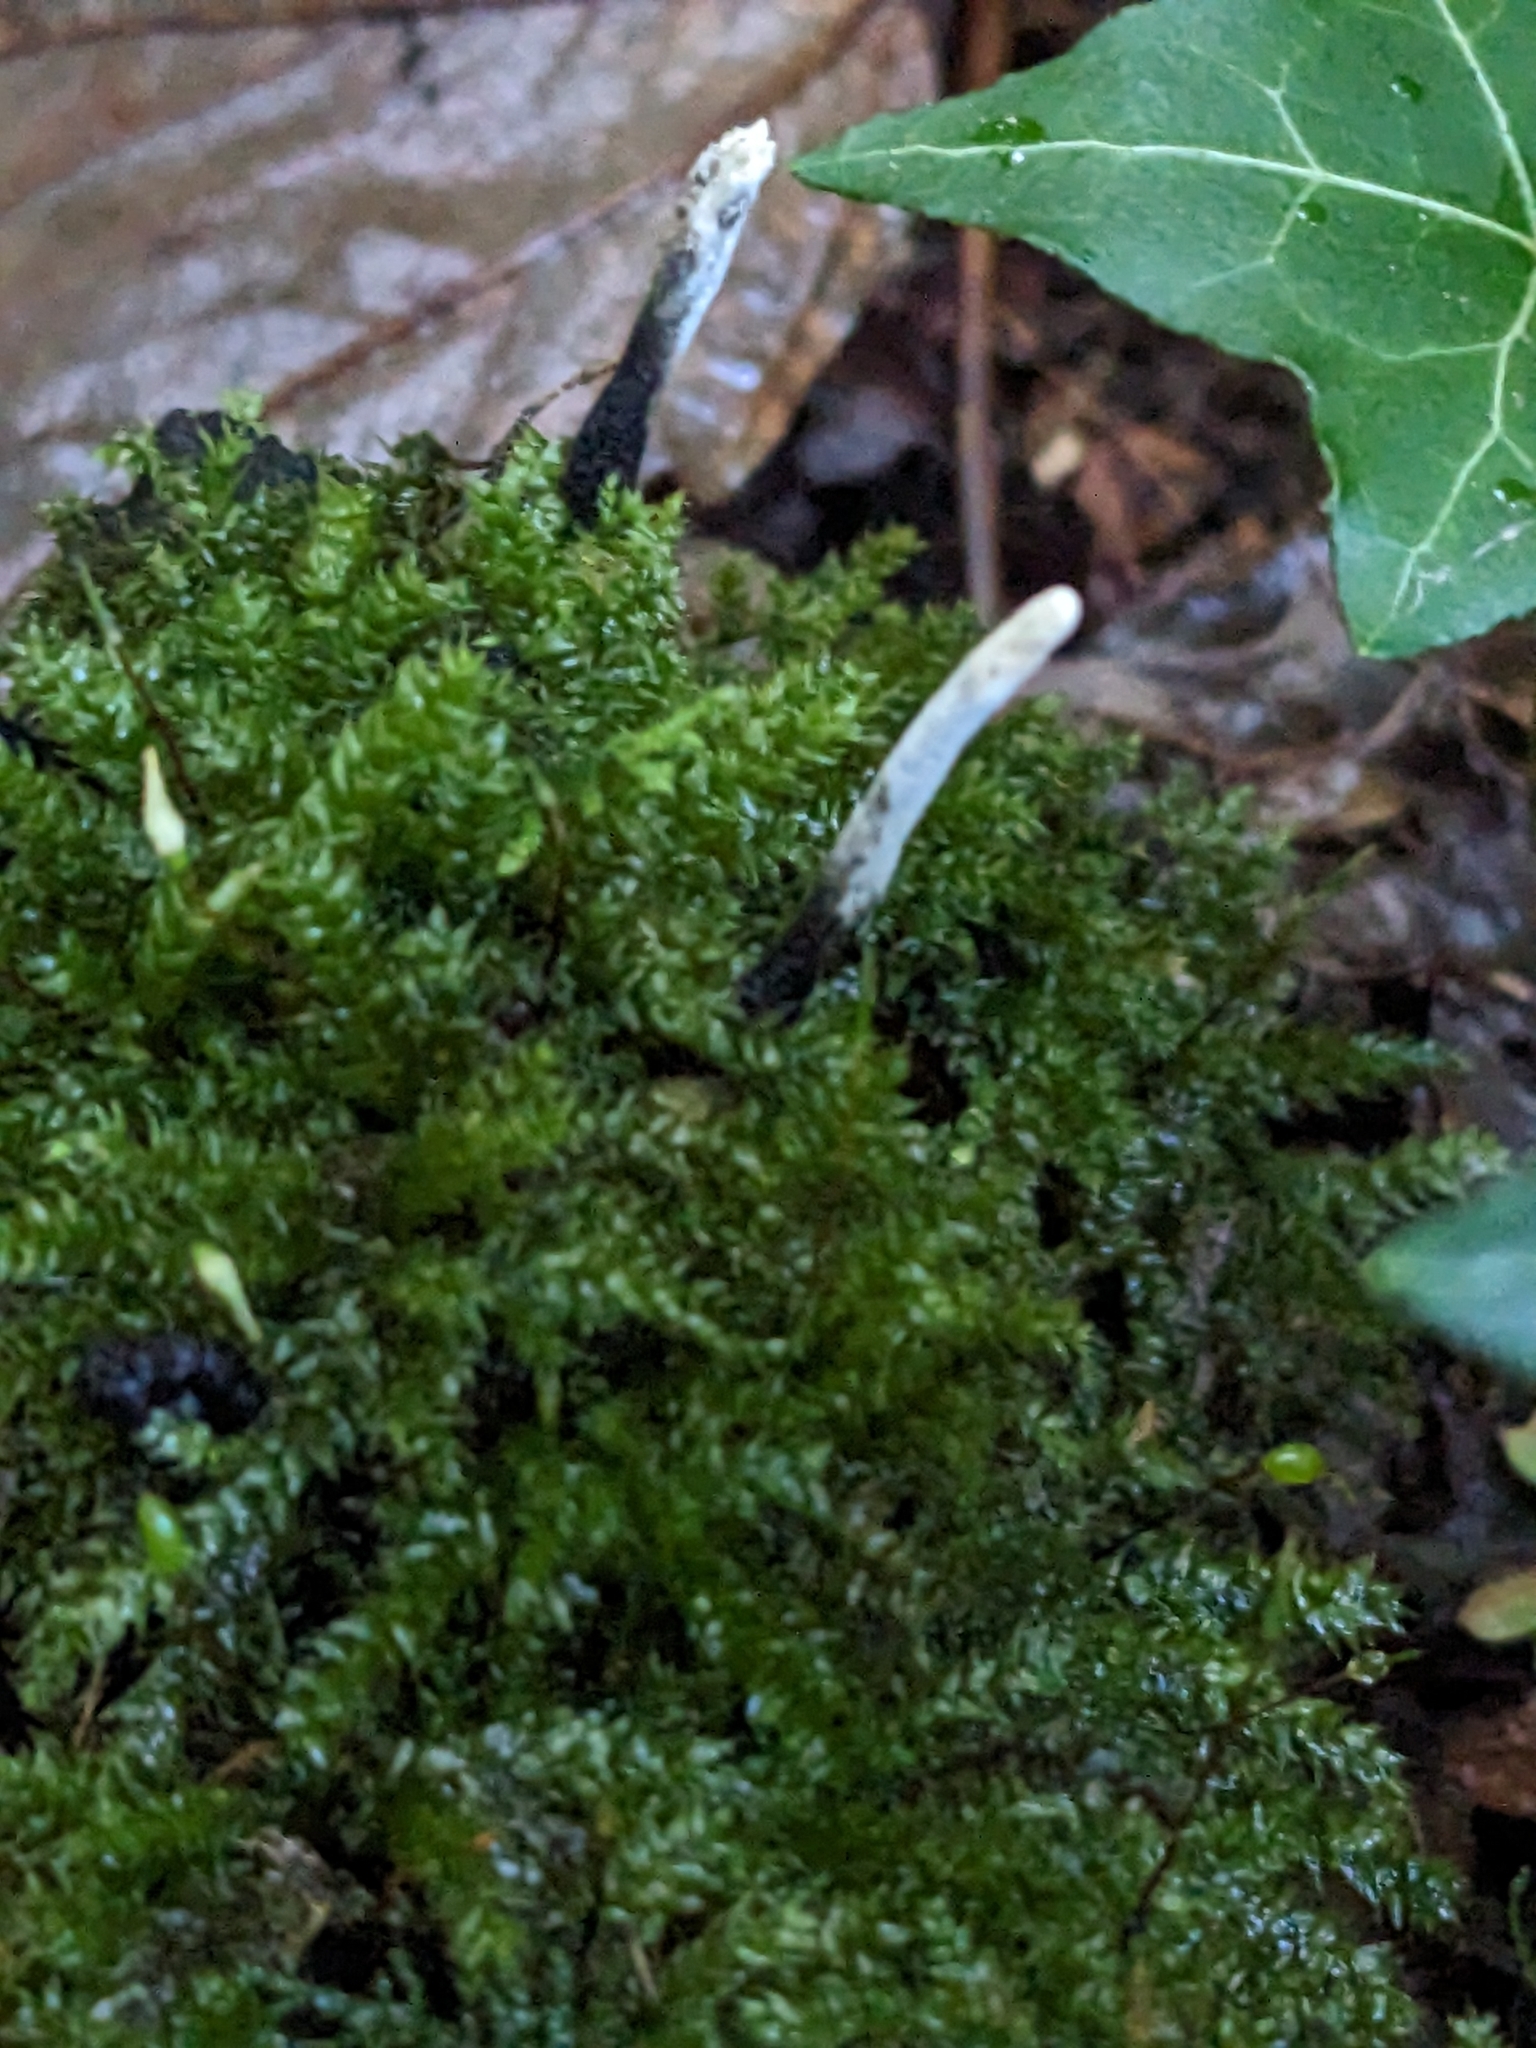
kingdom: Fungi
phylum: Ascomycota
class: Sordariomycetes
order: Xylariales
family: Xylariaceae
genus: Xylaria
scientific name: Xylaria hypoxylon
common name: Candle-snuff fungus
